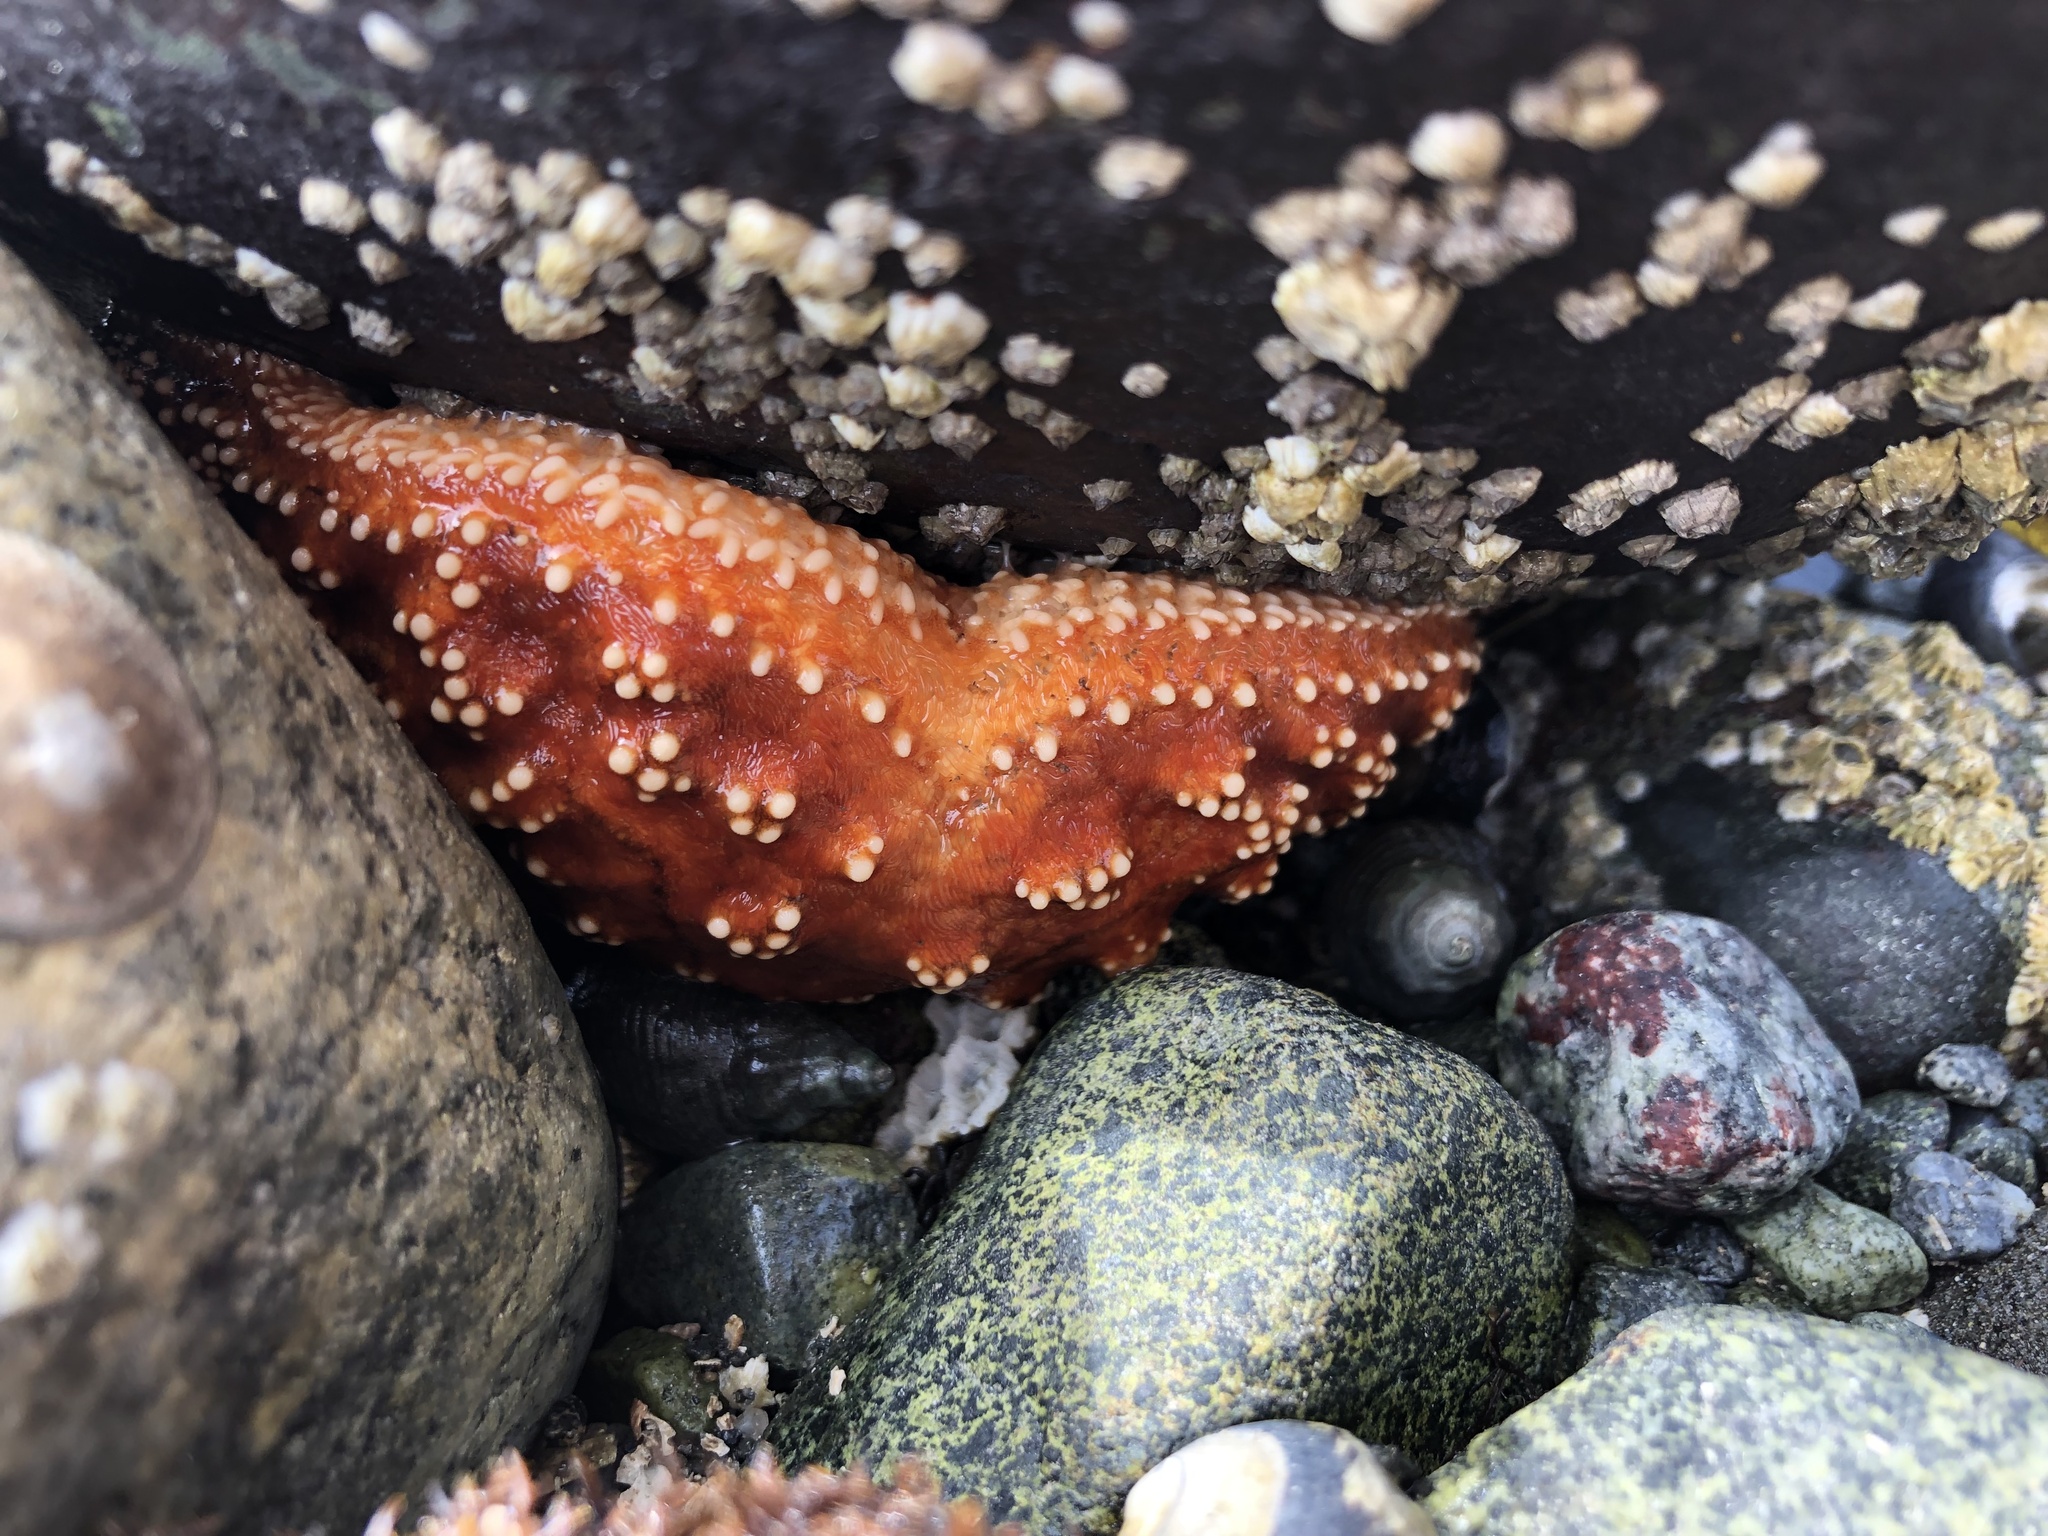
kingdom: Animalia
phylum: Echinodermata
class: Asteroidea
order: Forcipulatida
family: Asteriidae
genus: Pisaster
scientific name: Pisaster ochraceus
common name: Ochre stars
